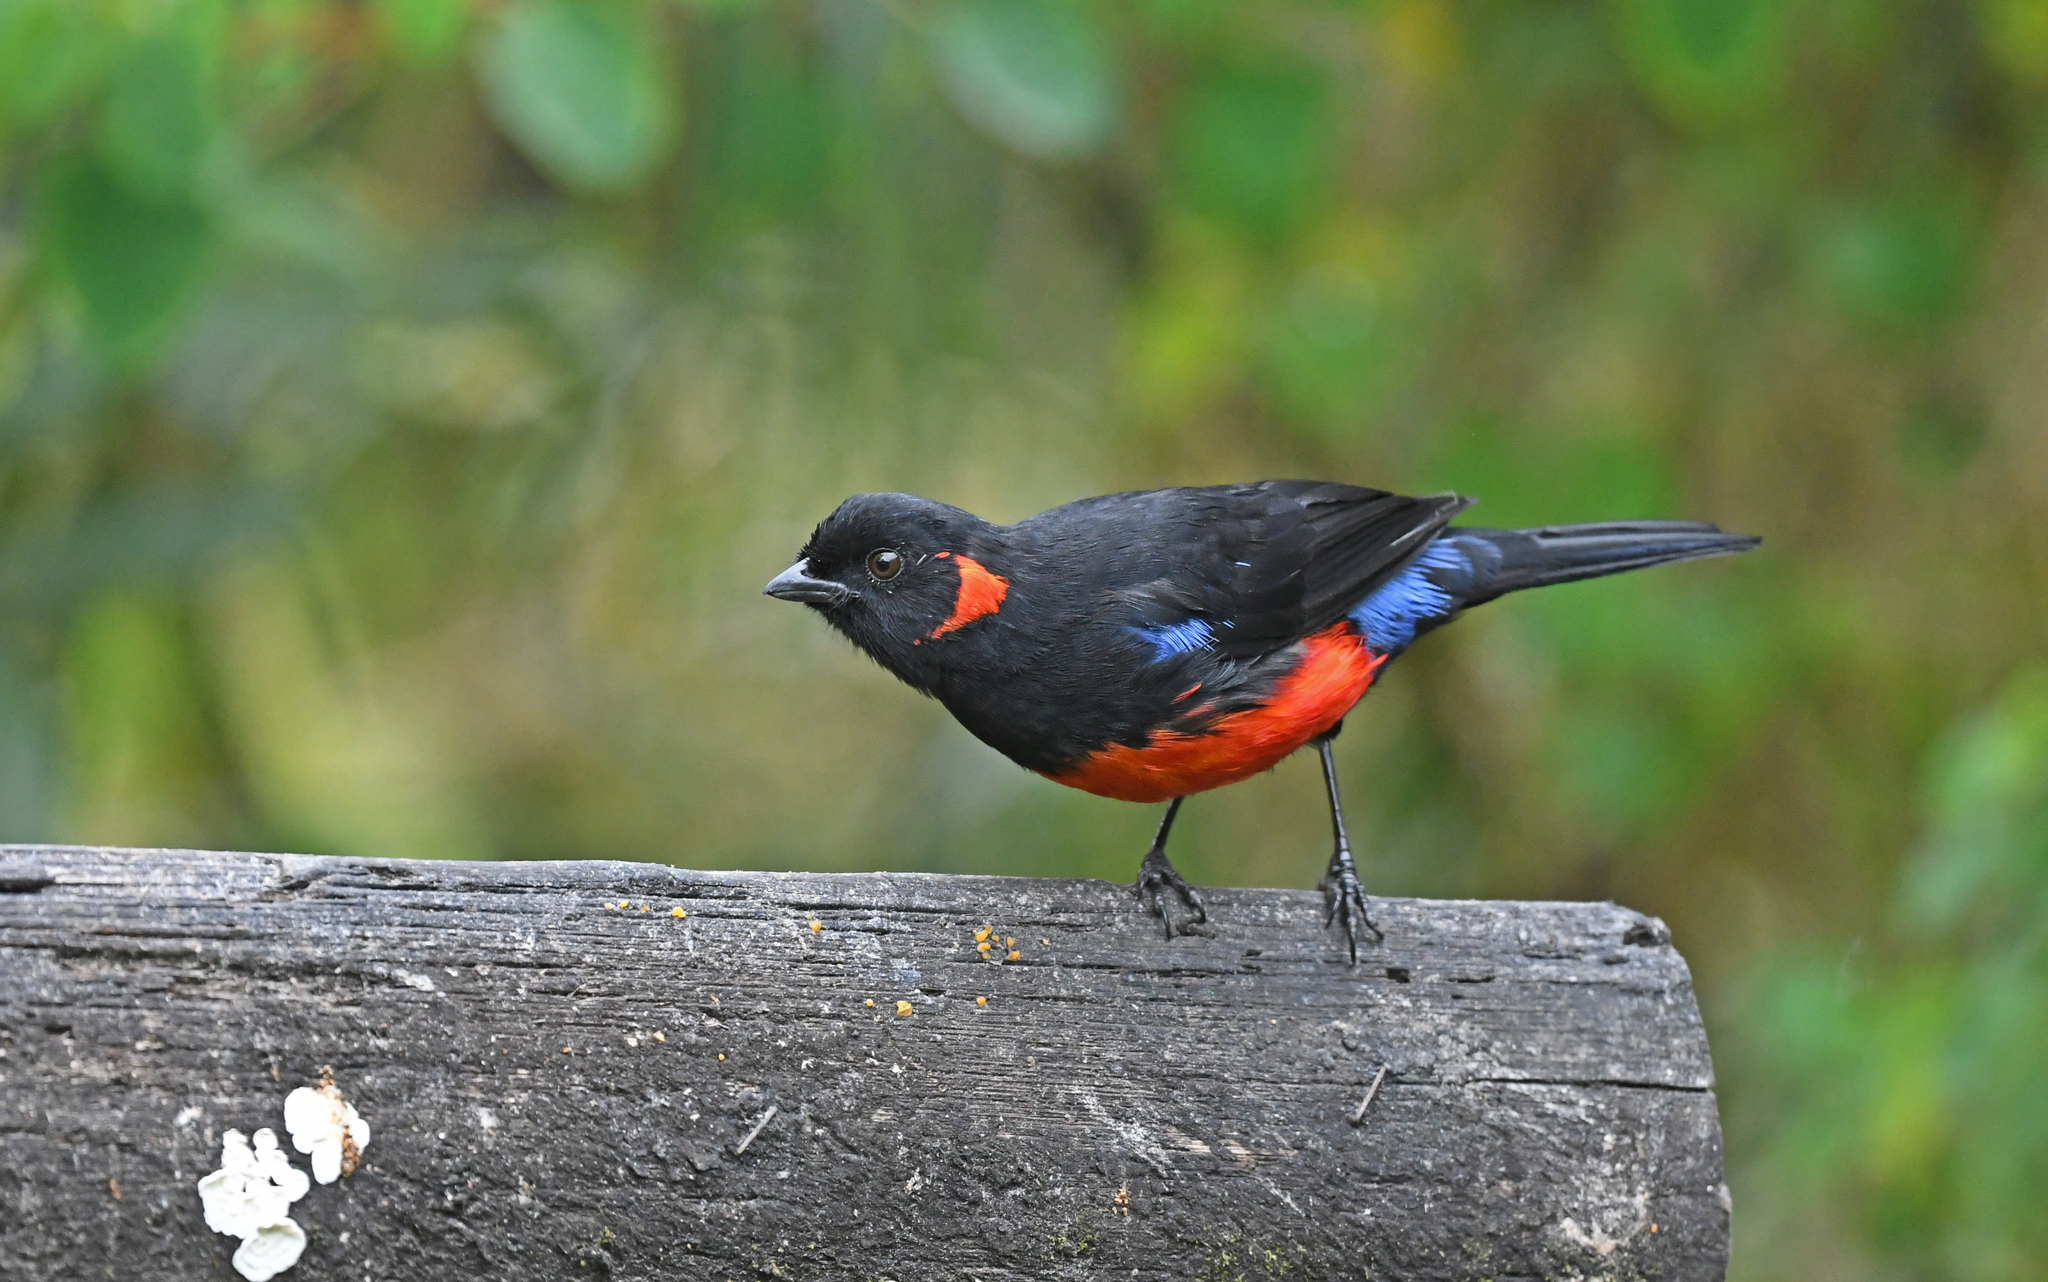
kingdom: Animalia
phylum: Chordata
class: Aves
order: Passeriformes
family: Thraupidae
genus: Anisognathus
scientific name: Anisognathus igniventris
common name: Scarlet-bellied mountain tanager
